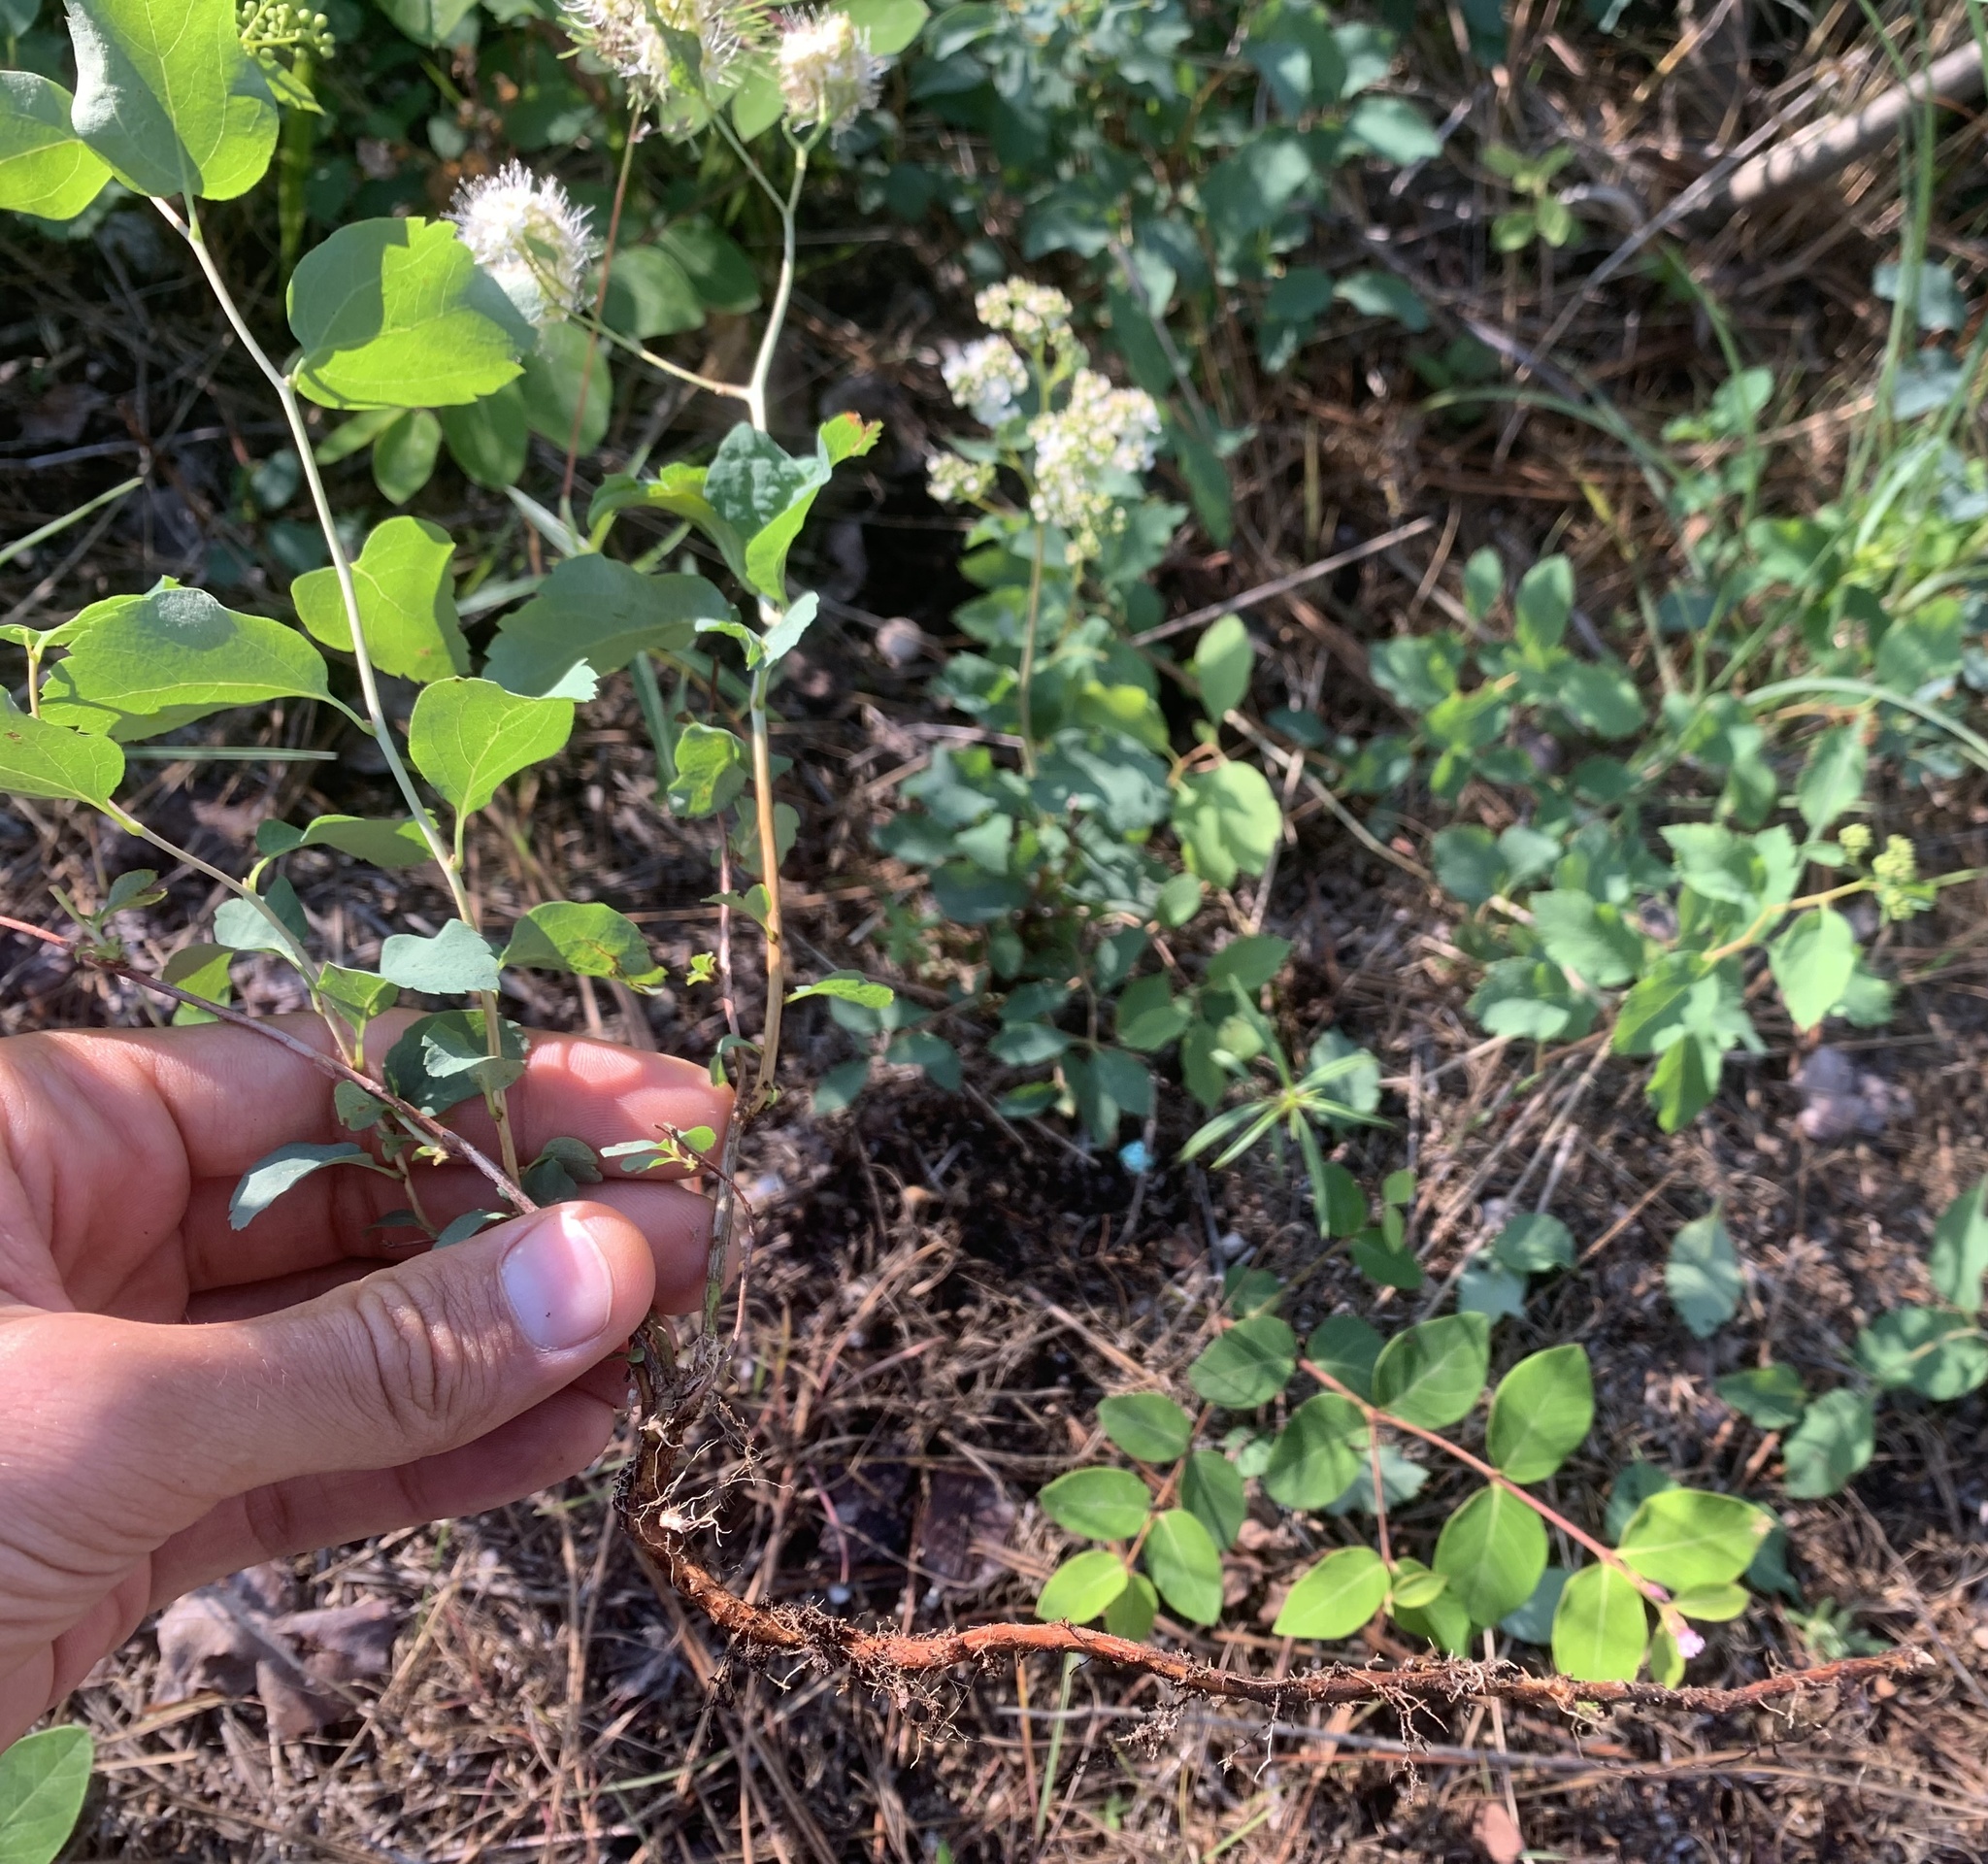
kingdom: Plantae
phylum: Tracheophyta
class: Magnoliopsida
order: Rosales
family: Rosaceae
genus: Spiraea
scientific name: Spiraea lucida
